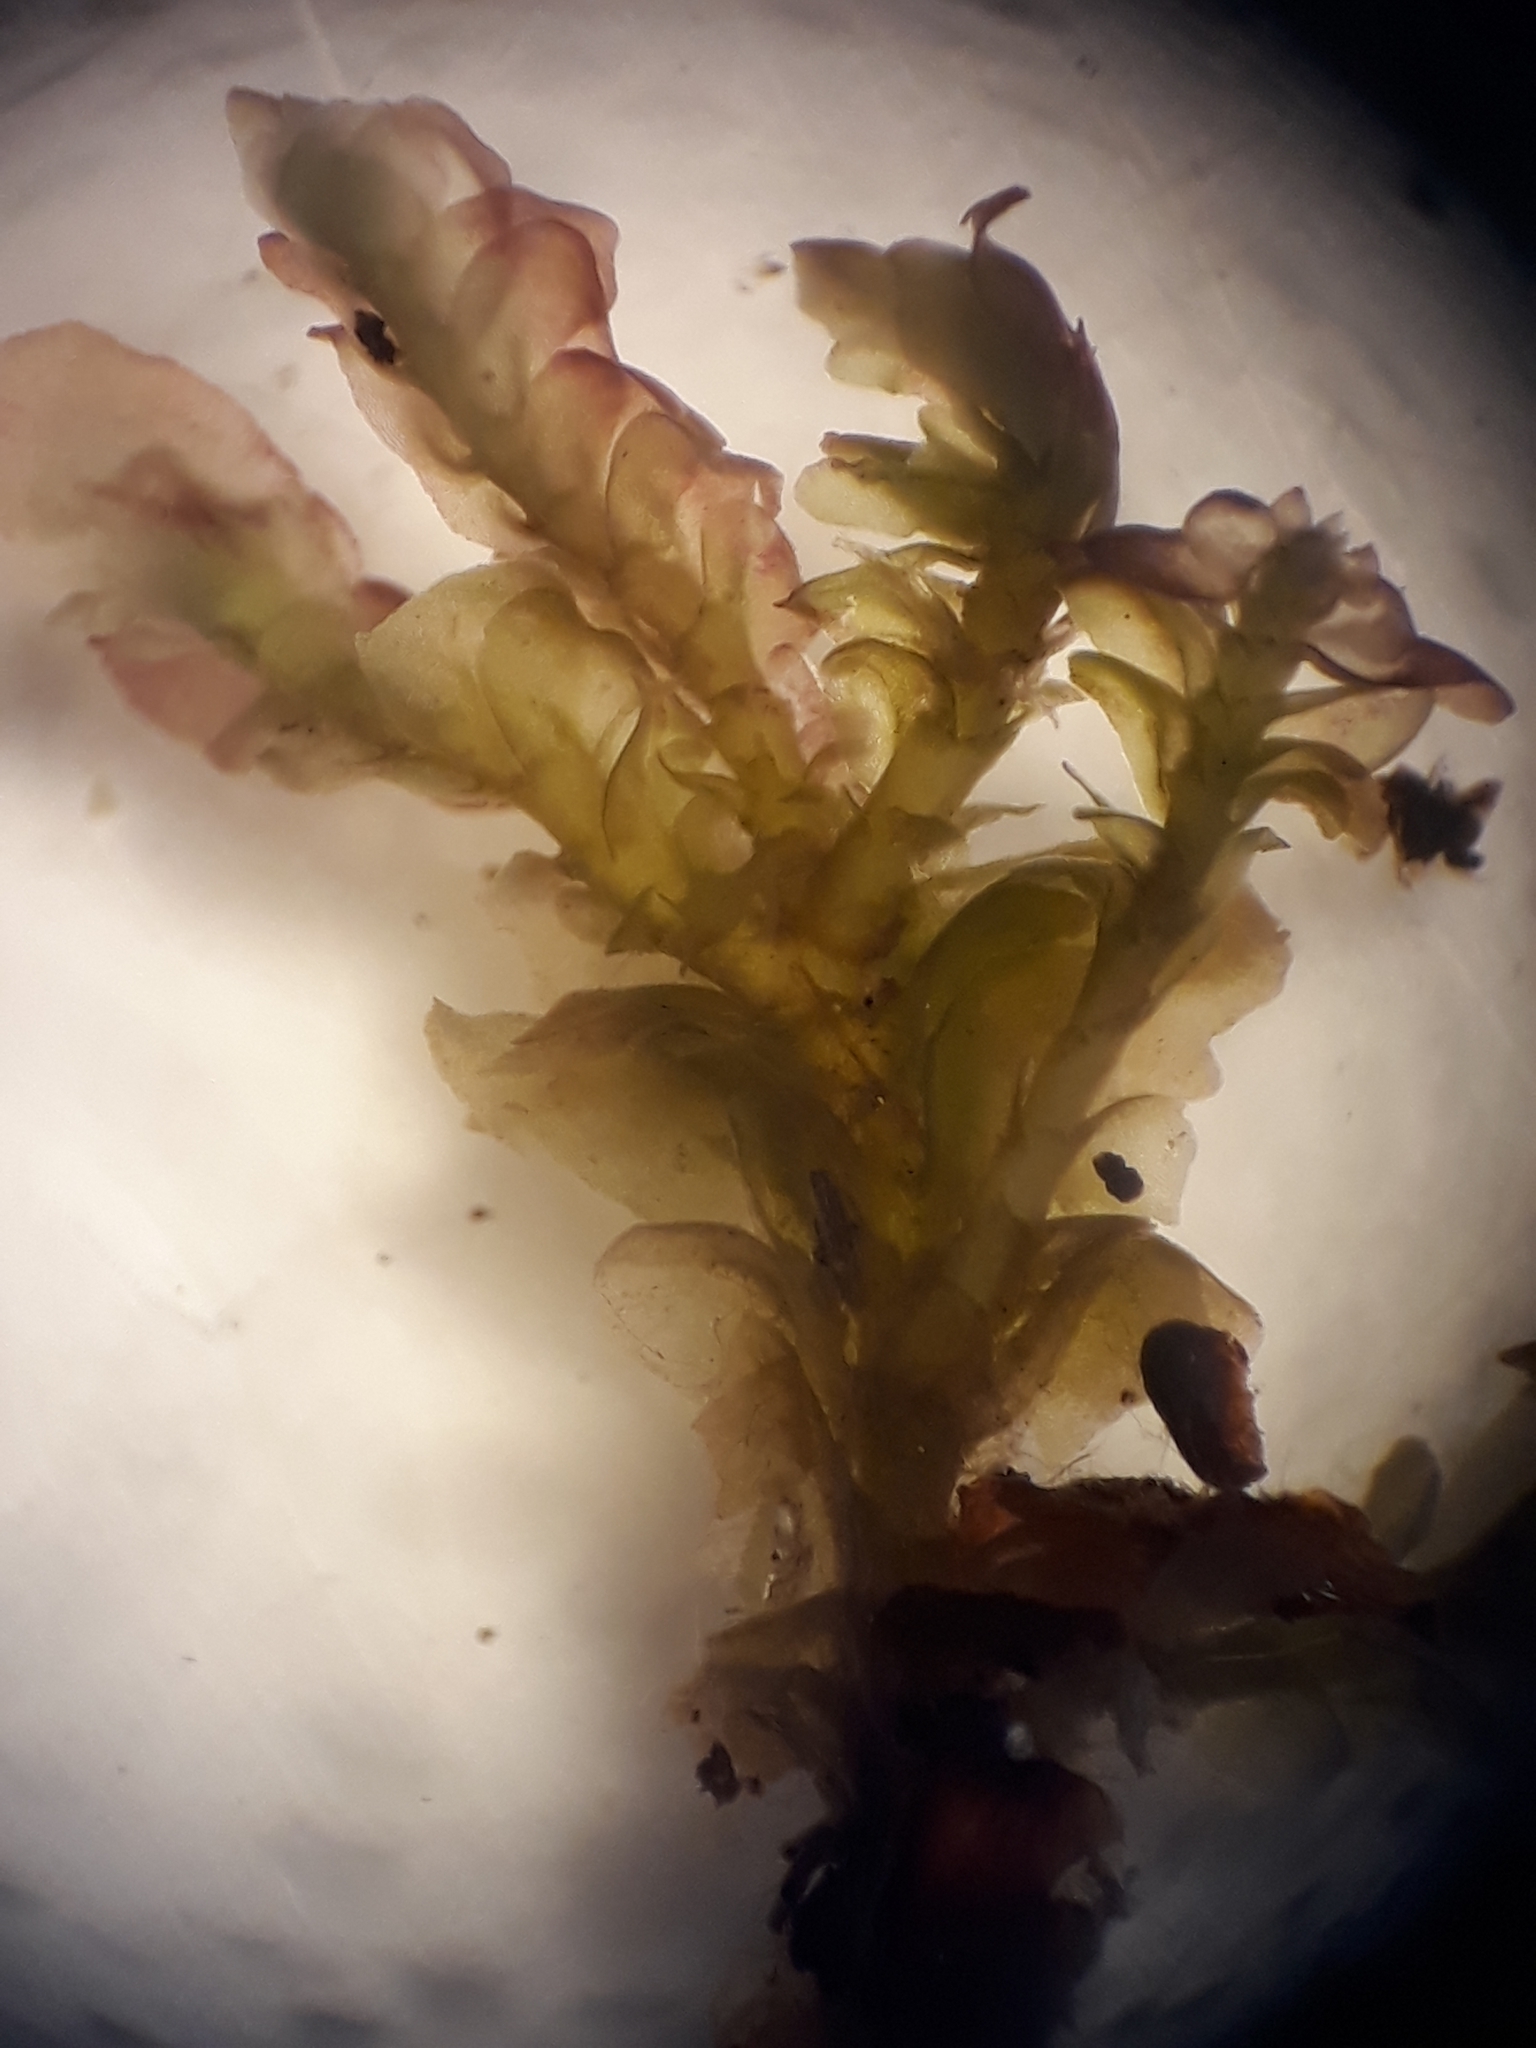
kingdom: Plantae
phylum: Marchantiophyta
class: Jungermanniopsida
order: Jungermanniales
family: Adelanthaceae
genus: Syzygiella
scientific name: Syzygiella tasmanica
